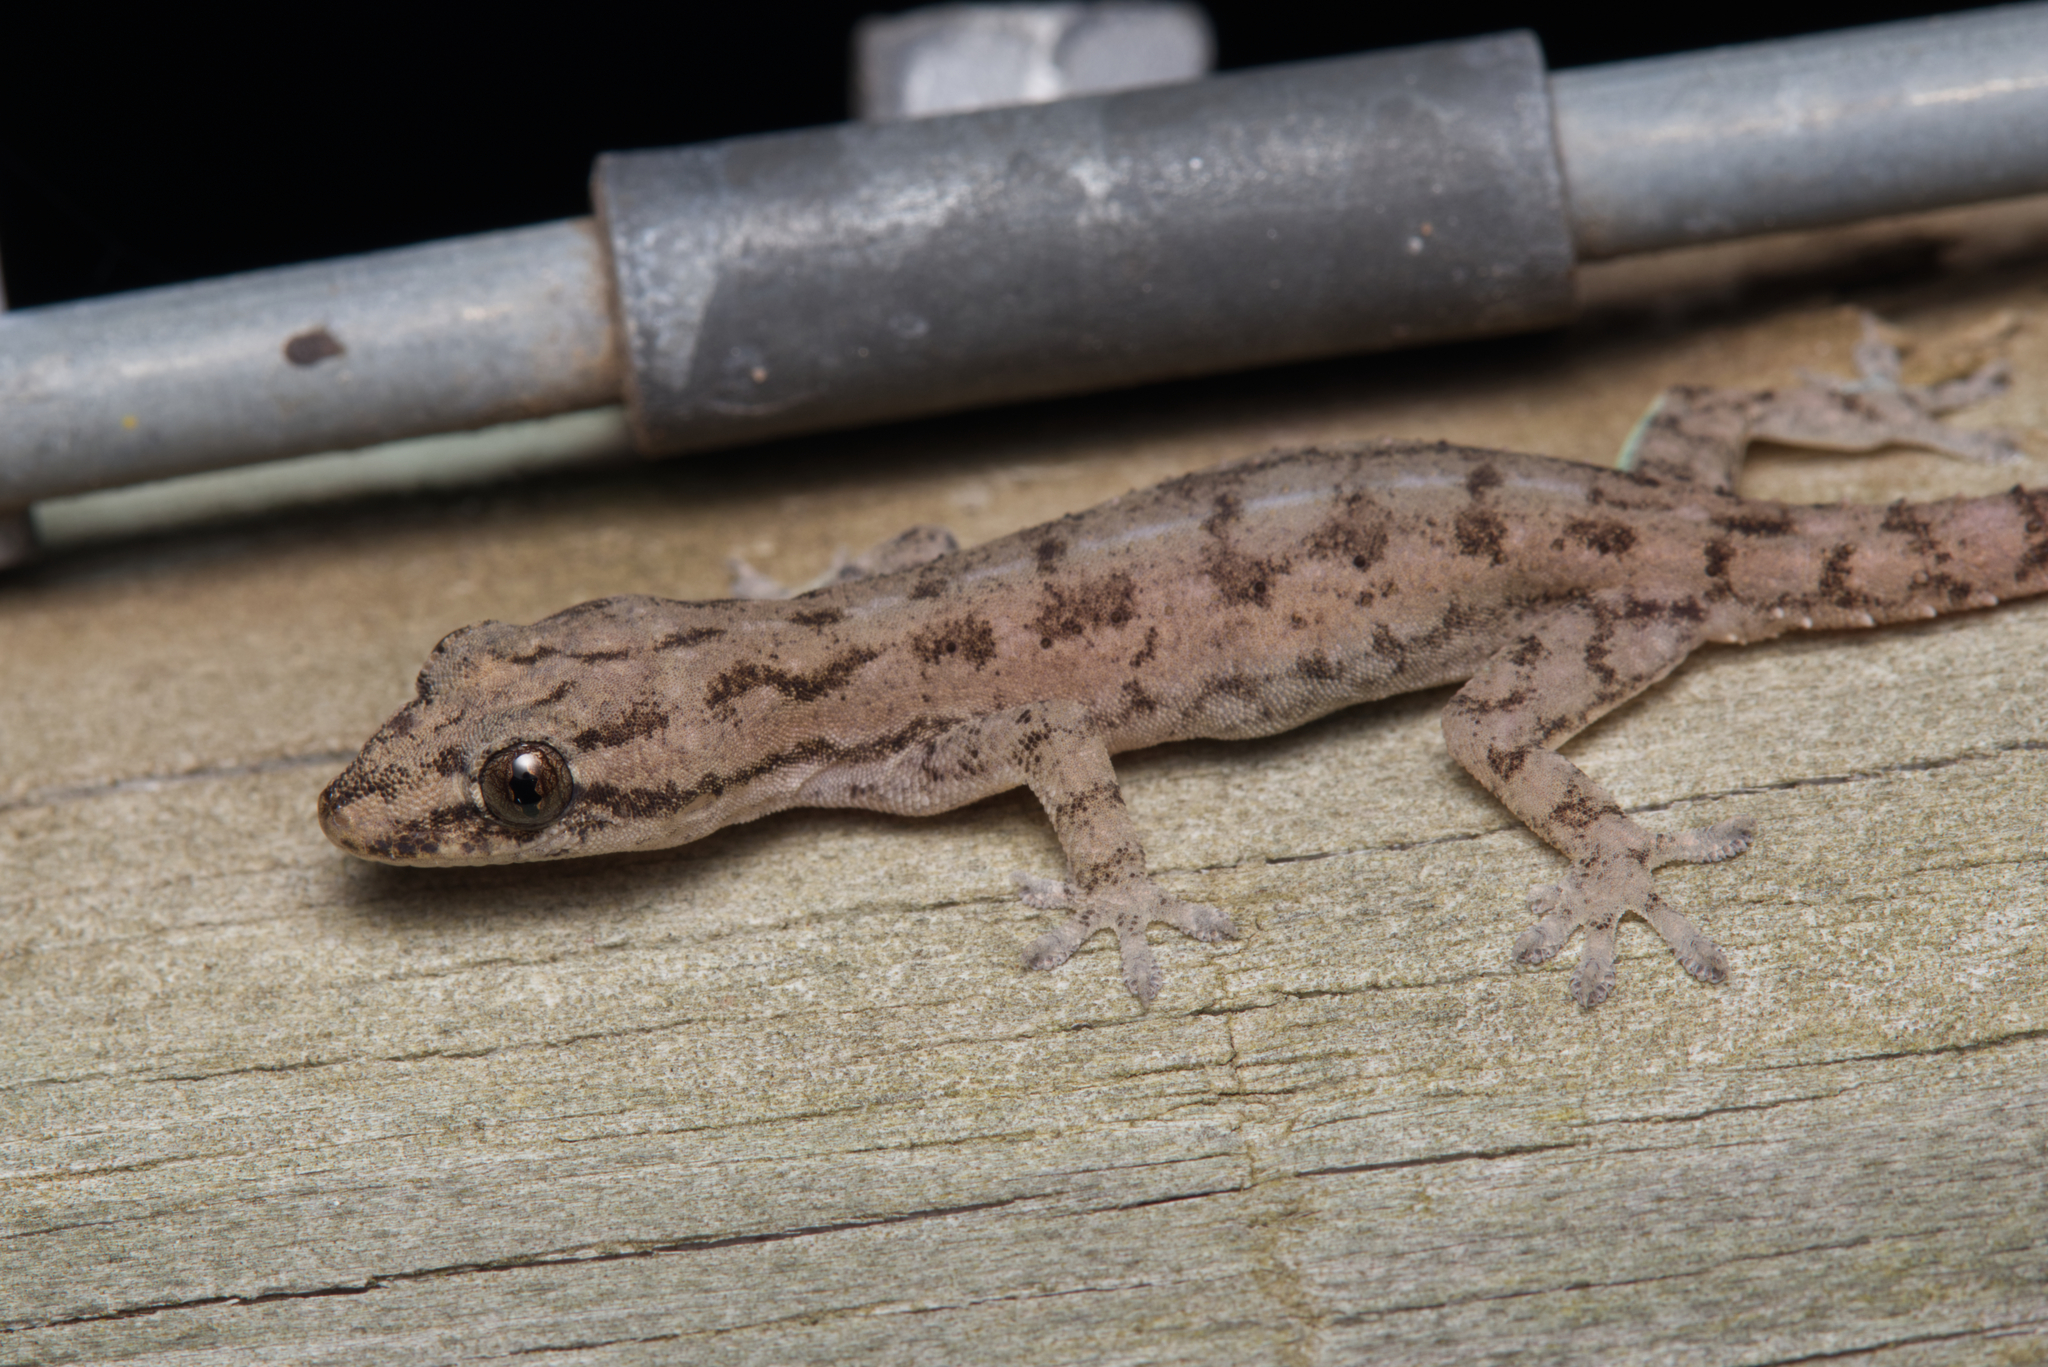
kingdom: Animalia
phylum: Chordata
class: Squamata
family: Gekkonidae
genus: Hemidactylus
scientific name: Hemidactylus frenatus
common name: Common house gecko
